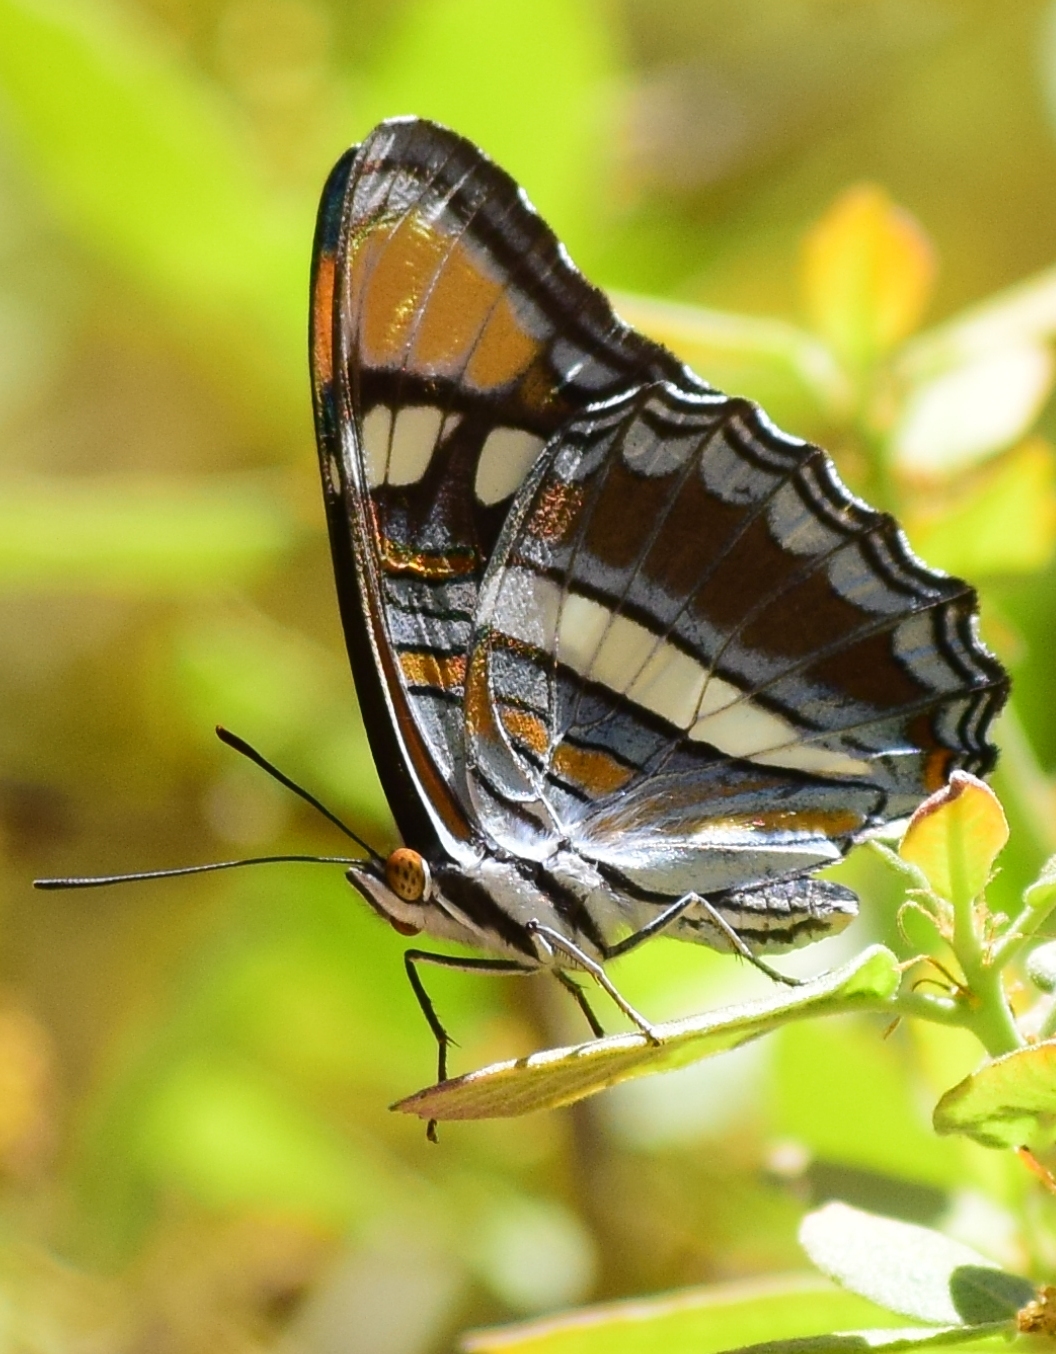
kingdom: Animalia
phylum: Arthropoda
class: Insecta
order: Lepidoptera
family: Nymphalidae
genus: Limenitis
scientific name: Limenitis bredowii
